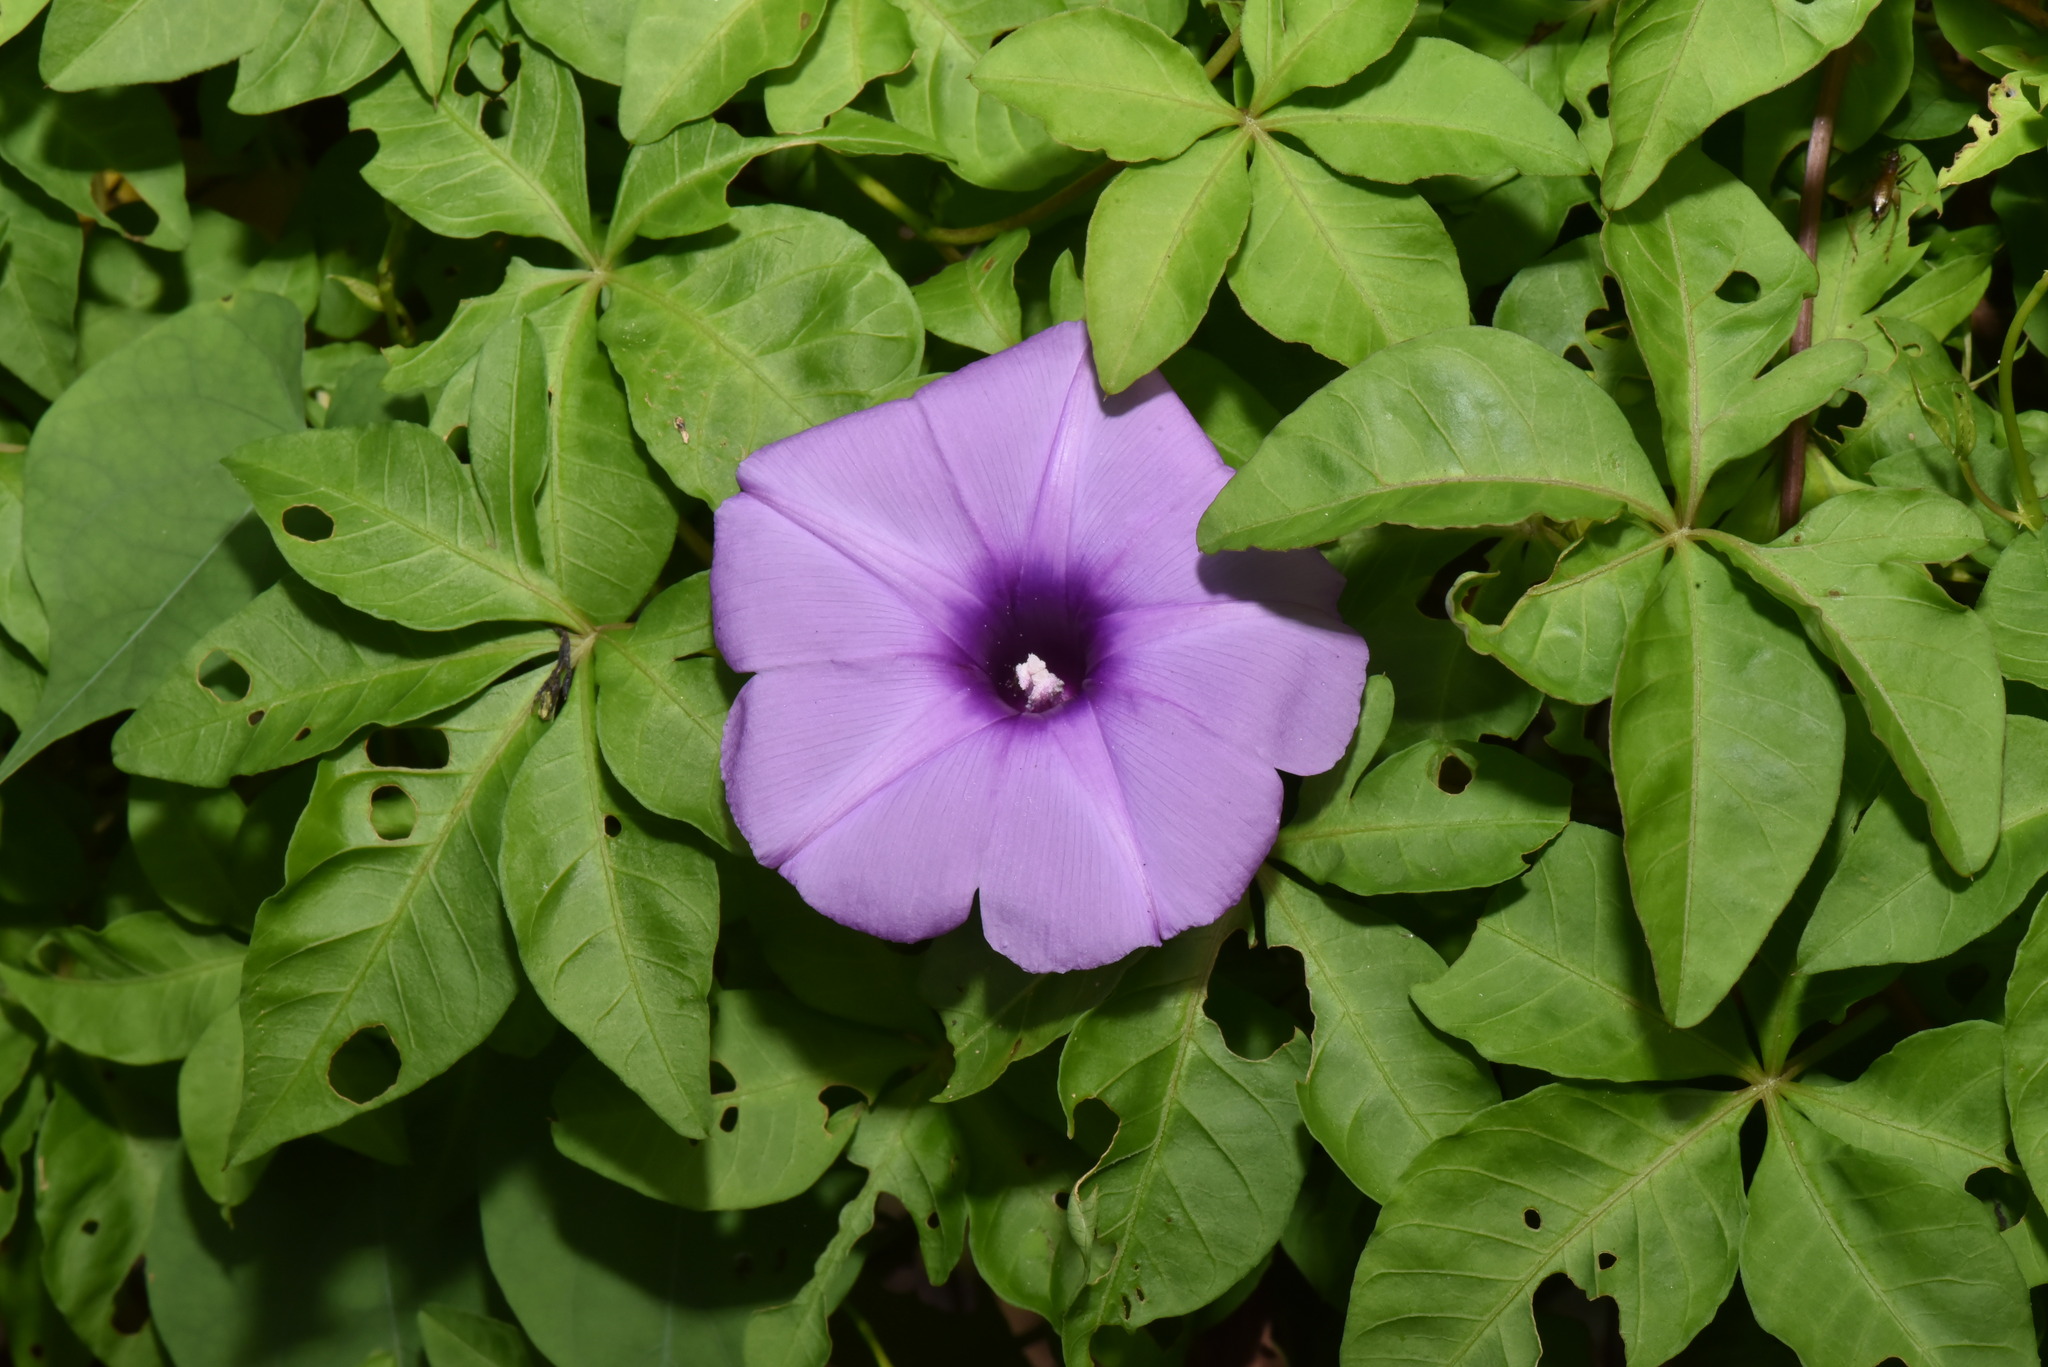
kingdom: Plantae
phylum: Tracheophyta
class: Magnoliopsida
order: Solanales
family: Convolvulaceae
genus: Ipomoea
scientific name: Ipomoea cairica
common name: Mile a minute vine
